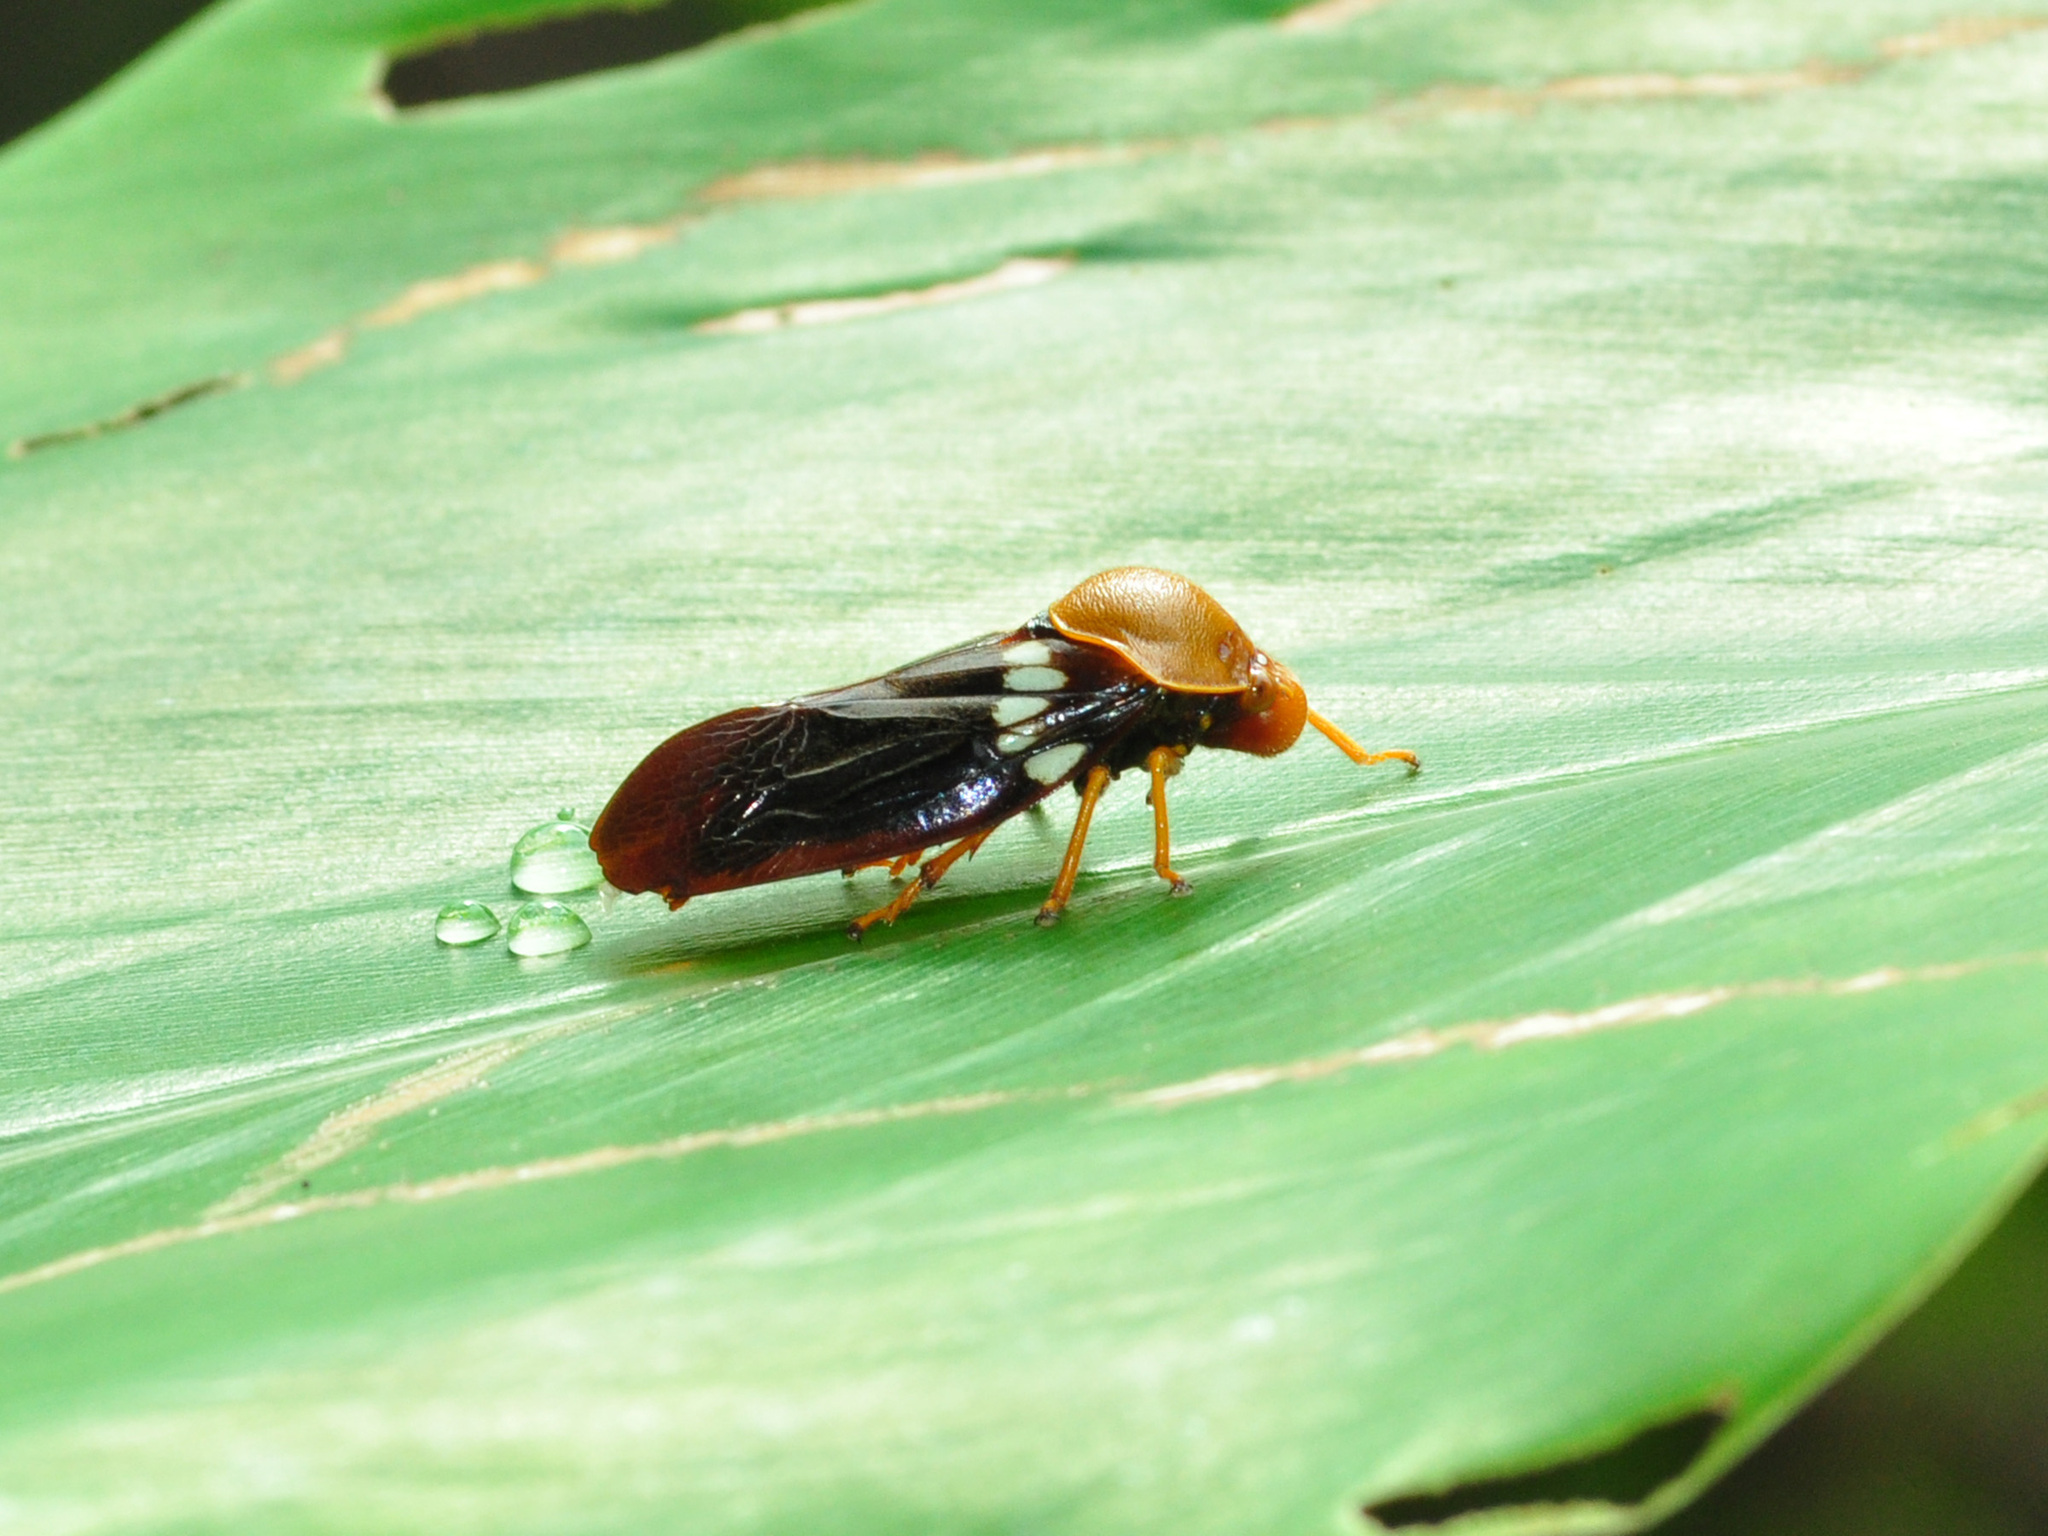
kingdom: Animalia
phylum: Arthropoda
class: Insecta
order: Hemiptera
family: Cercopidae
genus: Suracarta
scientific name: Suracarta tricolor
